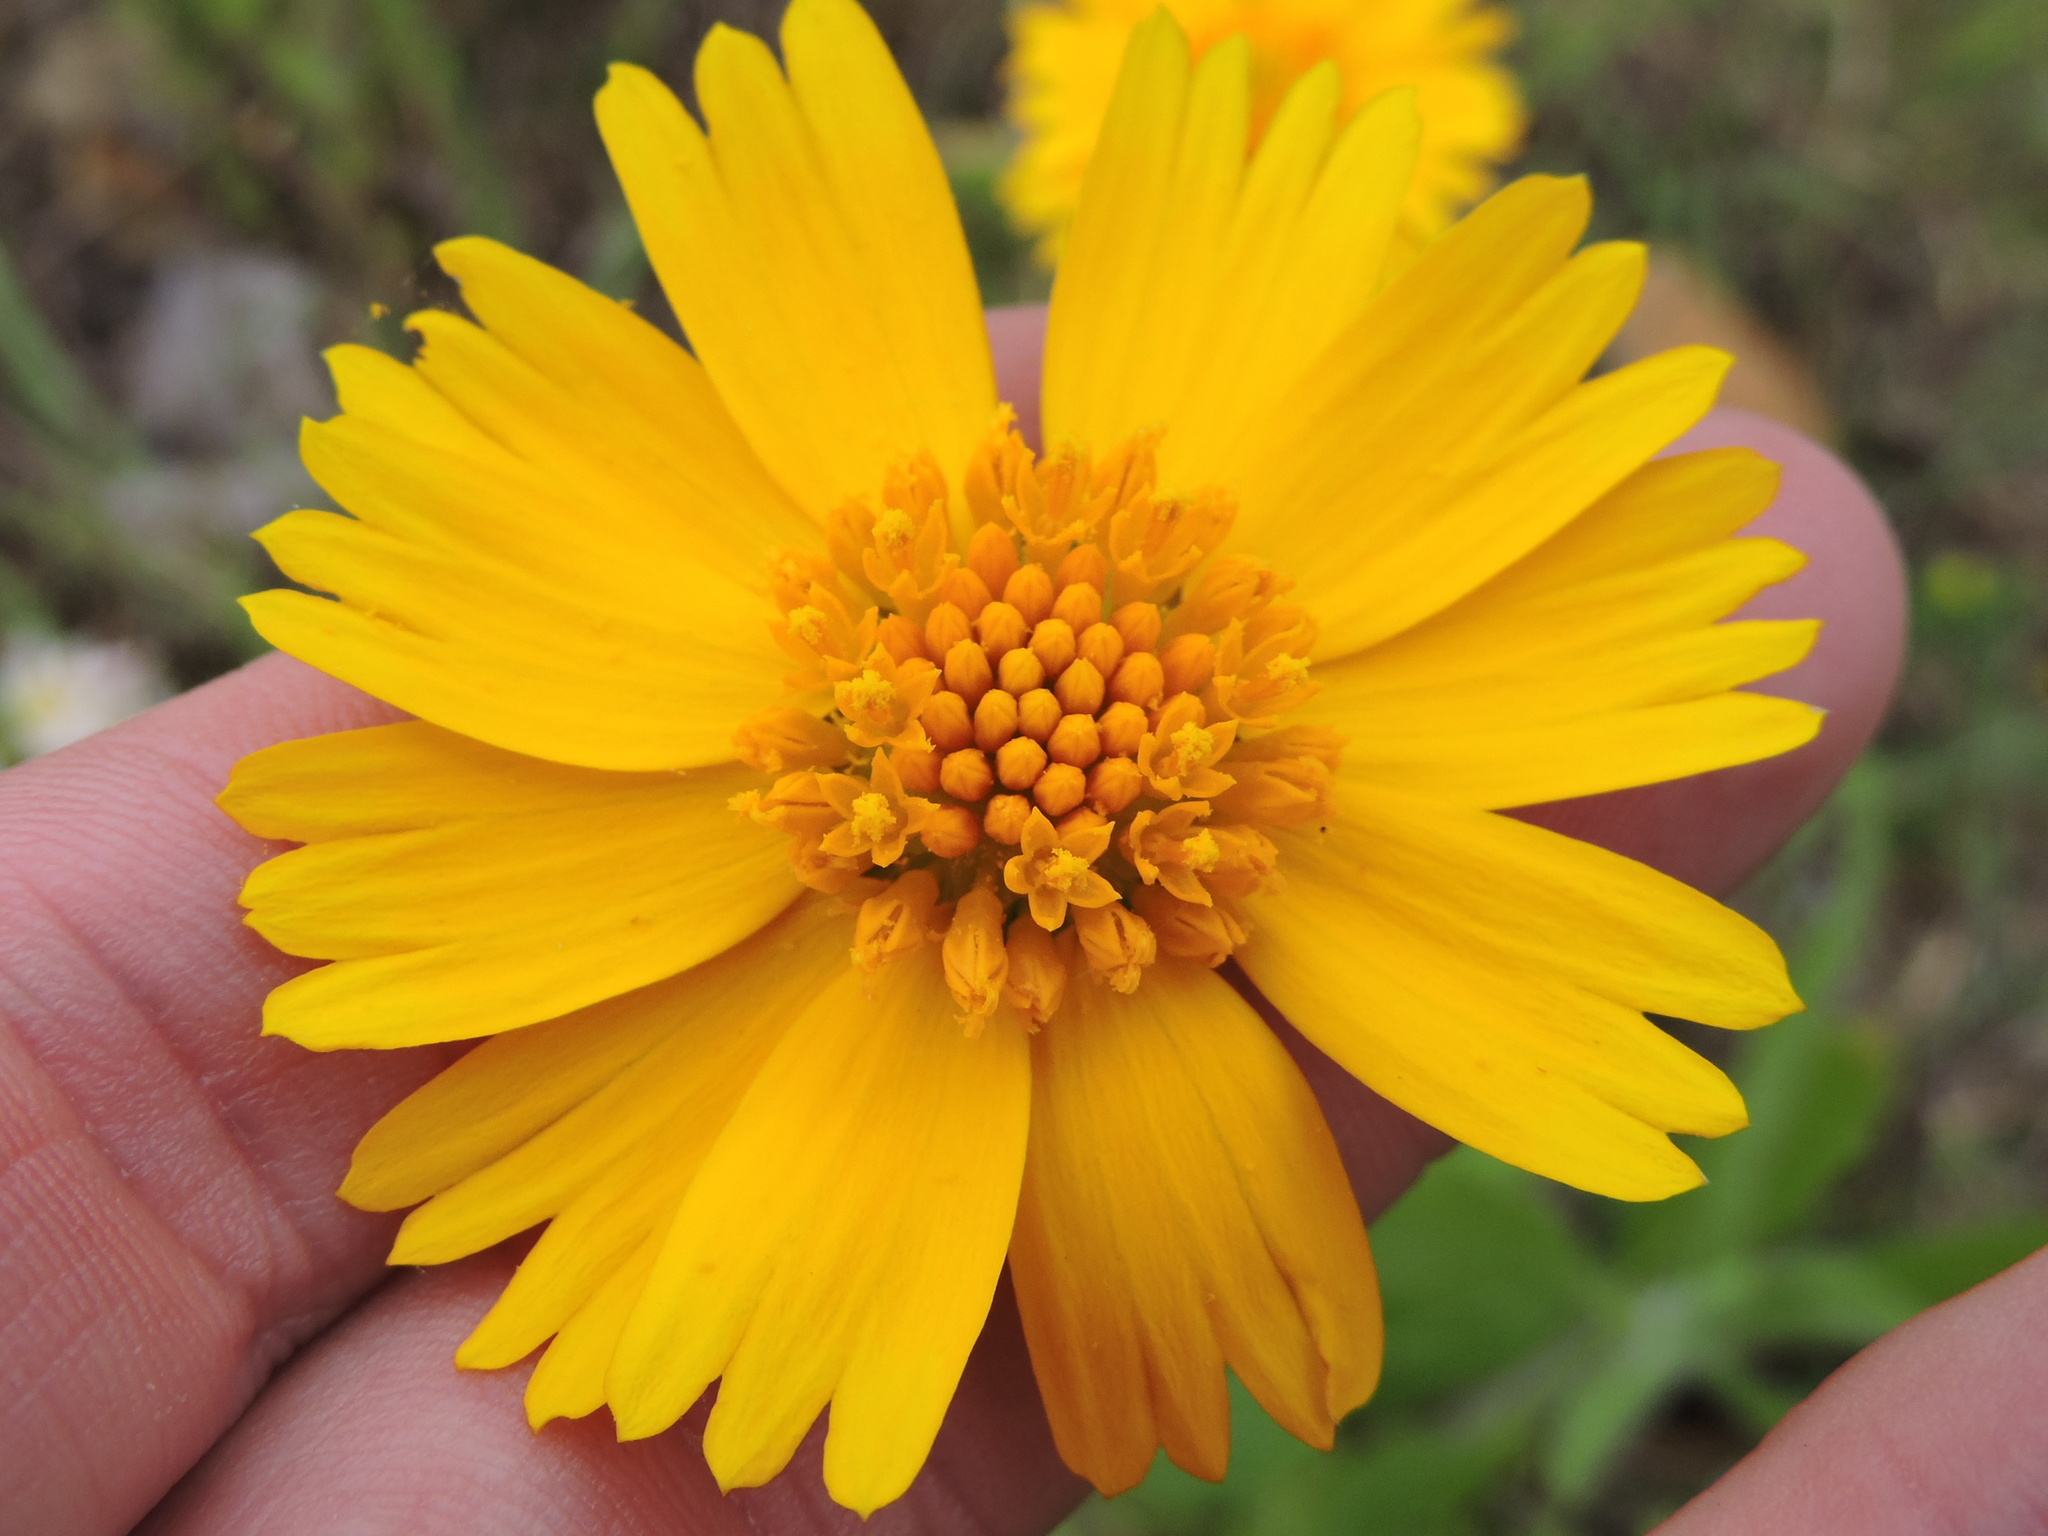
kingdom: Plantae
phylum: Tracheophyta
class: Magnoliopsida
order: Asterales
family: Asteraceae
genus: Amblyolepis
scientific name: Amblyolepis setigera
